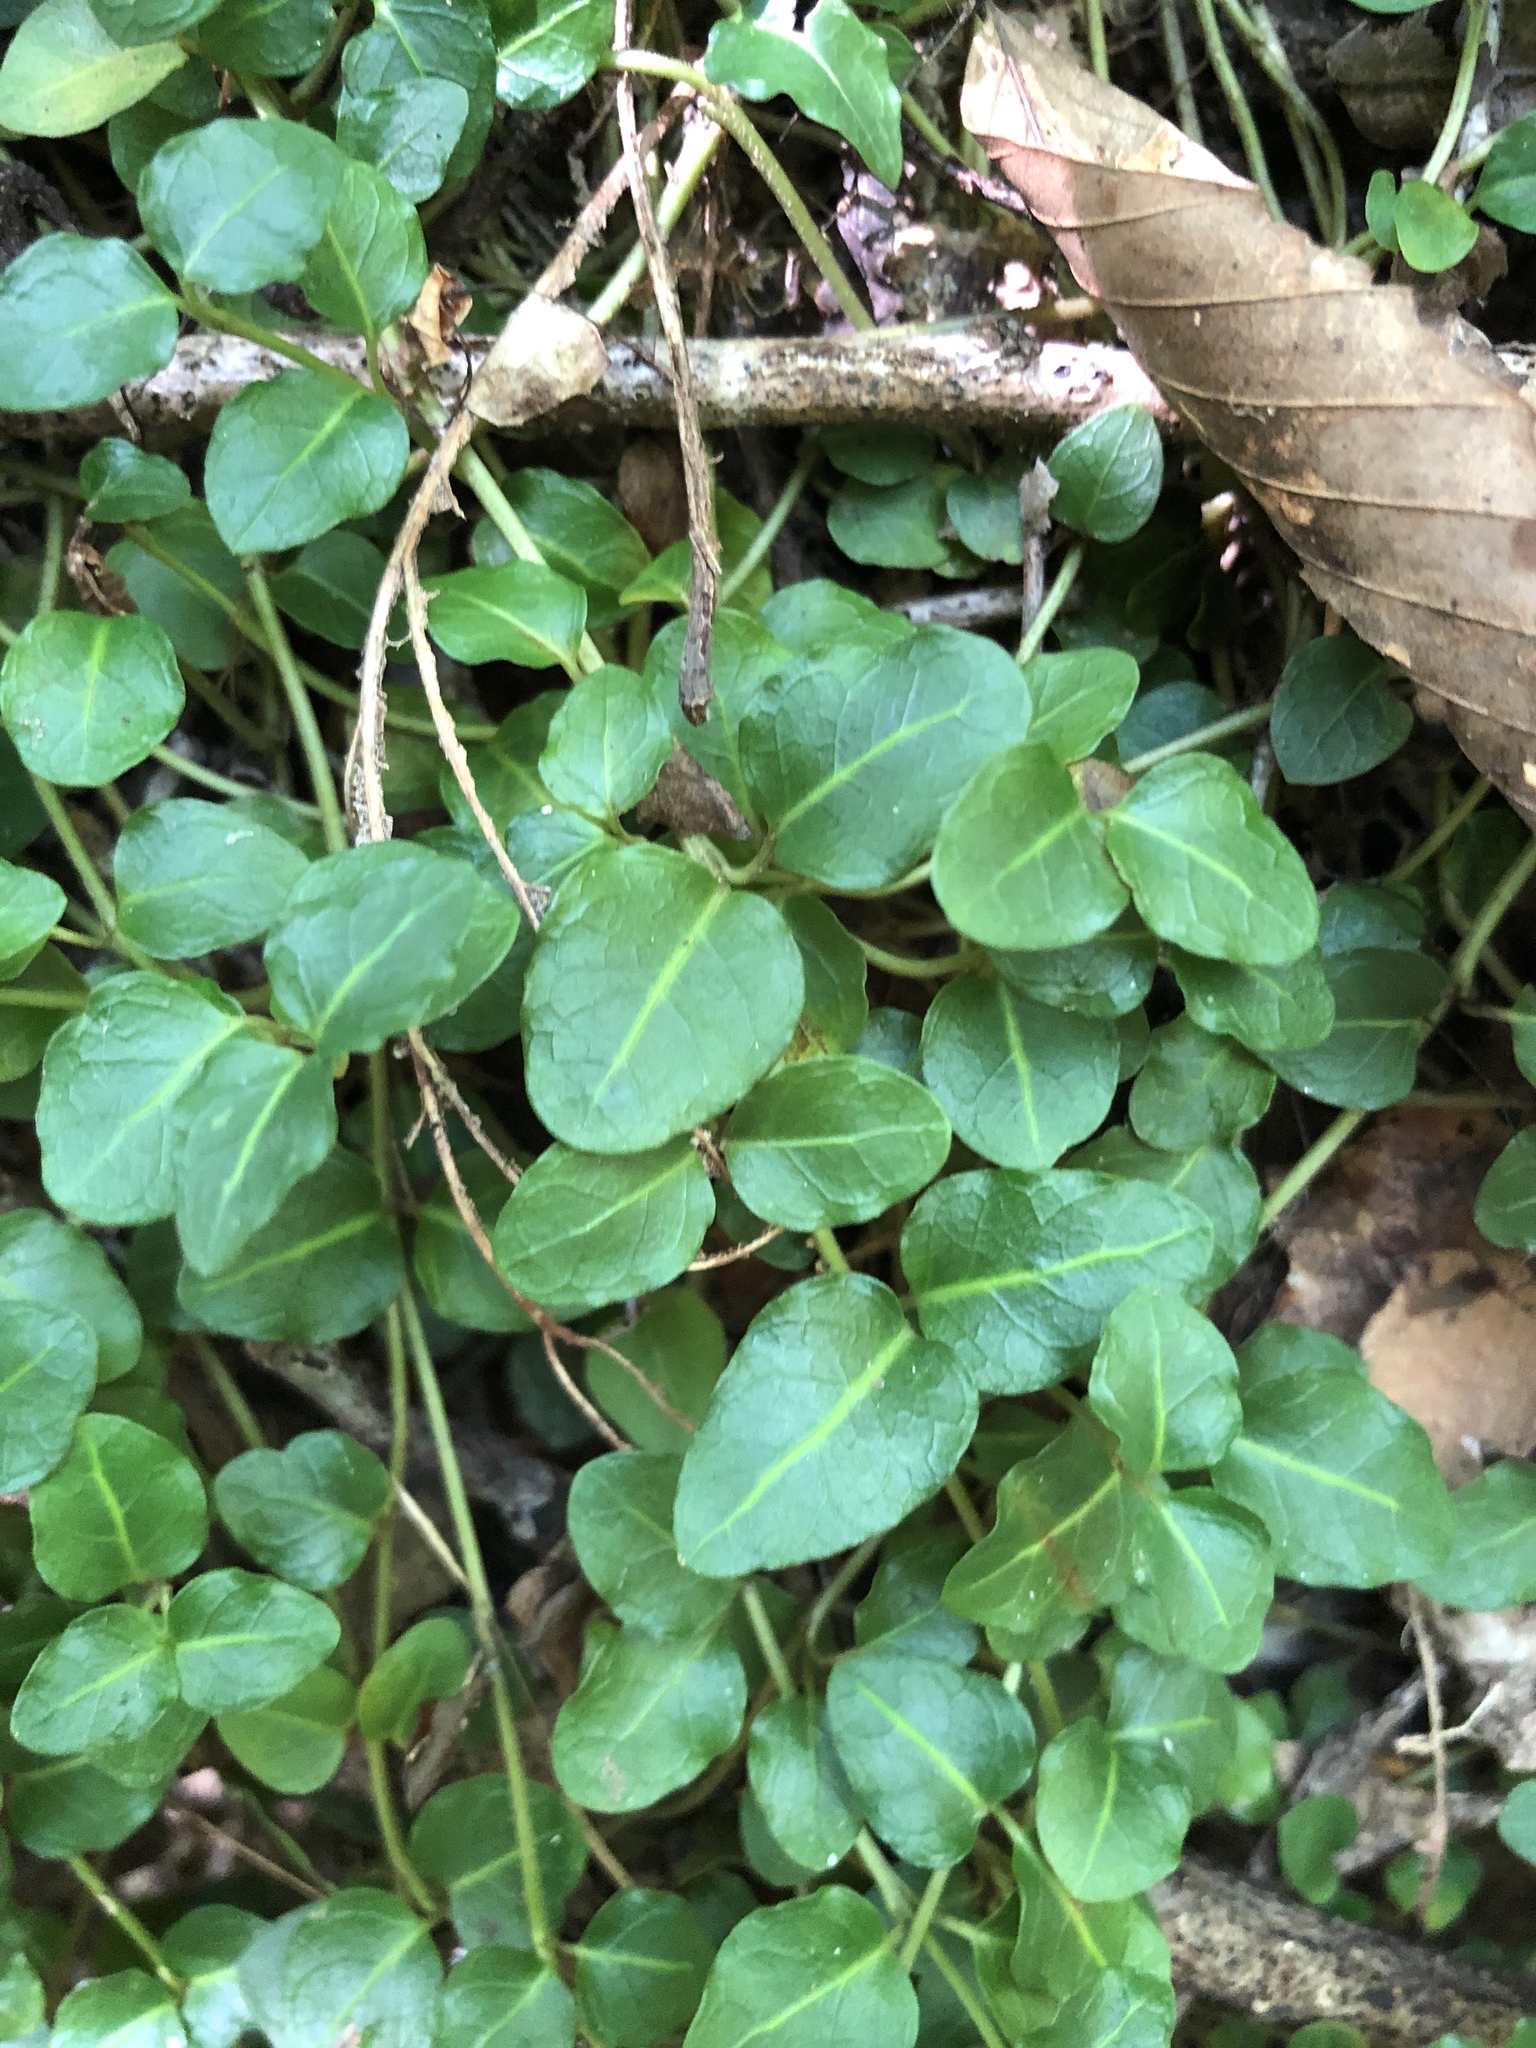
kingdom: Plantae
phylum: Tracheophyta
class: Magnoliopsida
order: Gentianales
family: Rubiaceae
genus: Mitchella
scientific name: Mitchella repens
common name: Partridge-berry
